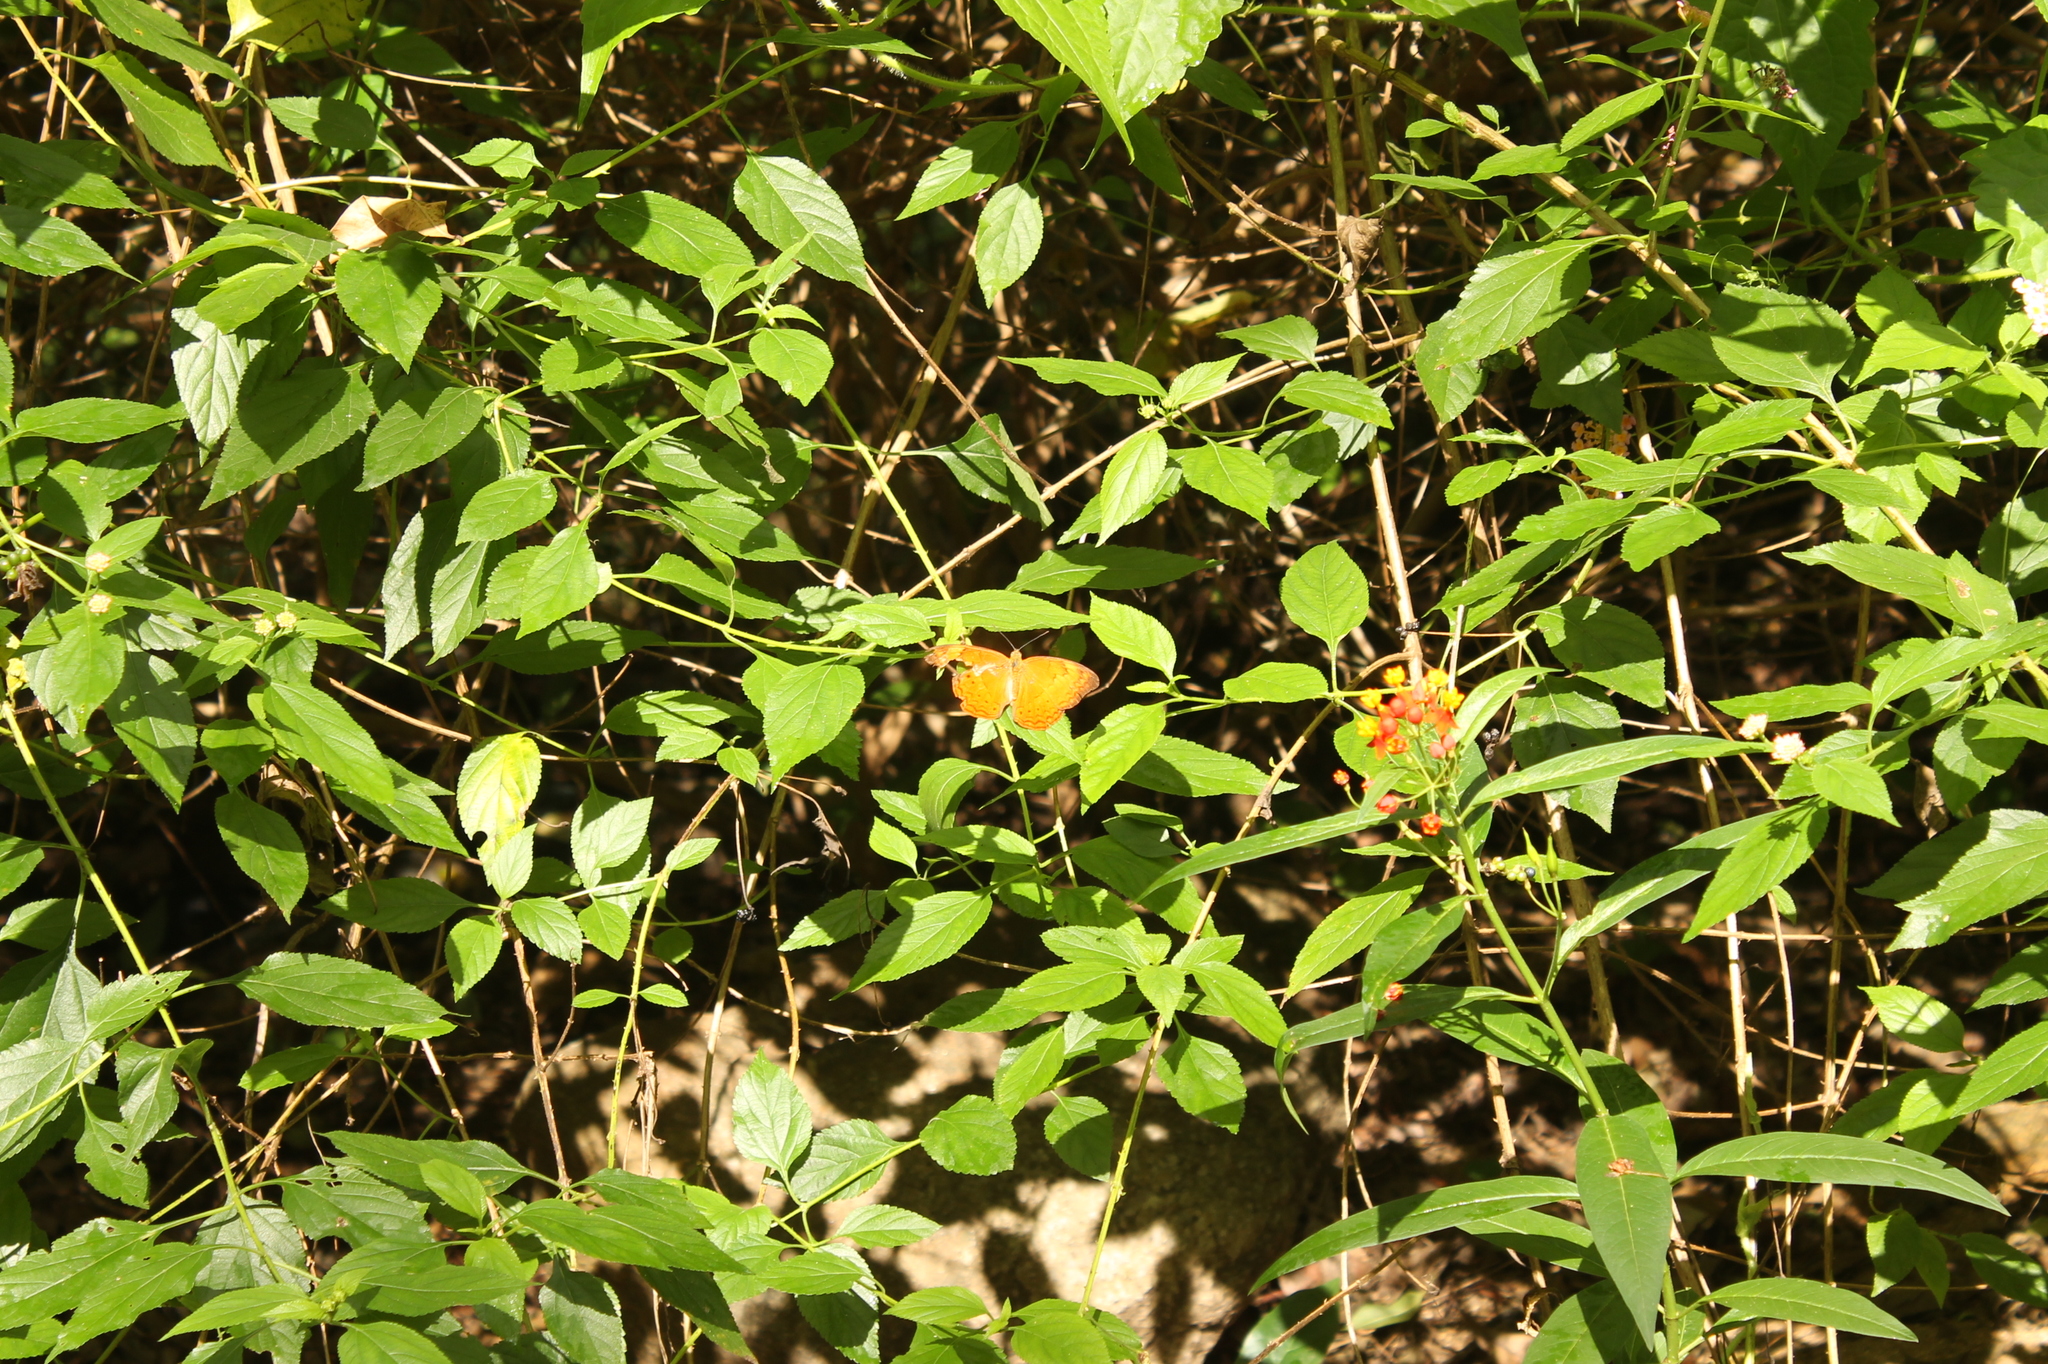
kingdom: Animalia
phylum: Arthropoda
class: Insecta
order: Lepidoptera
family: Nymphalidae
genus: Cirrochroa
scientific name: Cirrochroa thais
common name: Tamil yeoman
